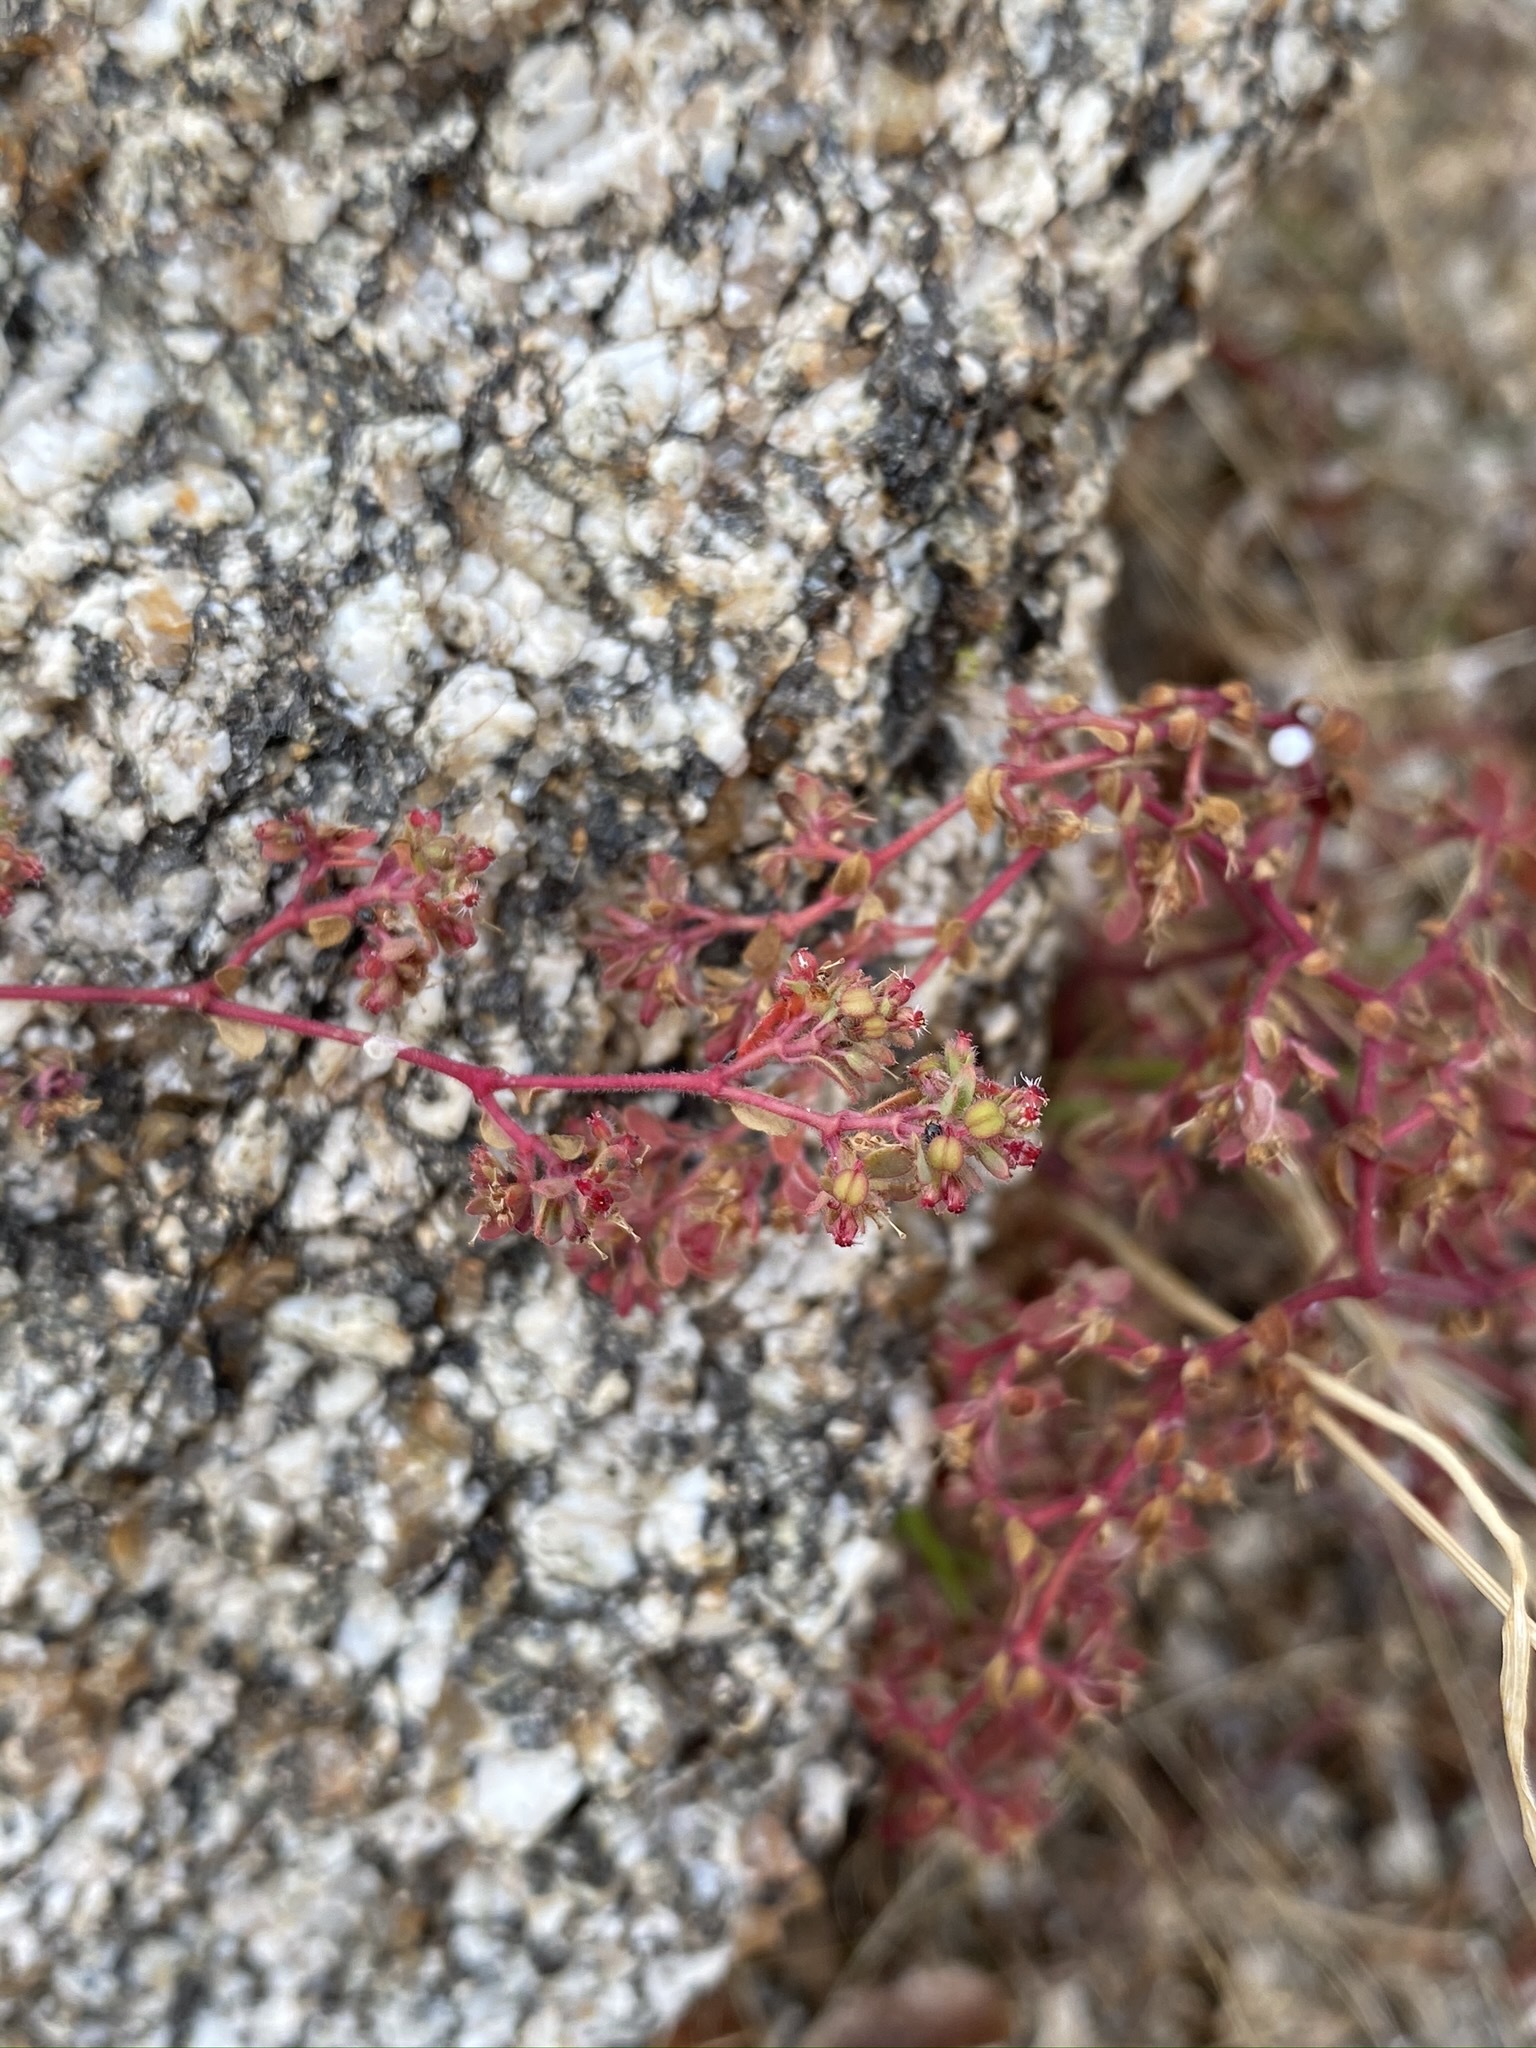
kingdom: Plantae
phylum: Tracheophyta
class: Magnoliopsida
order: Malpighiales
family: Euphorbiaceae
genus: Euphorbia
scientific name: Euphorbia setiloba
